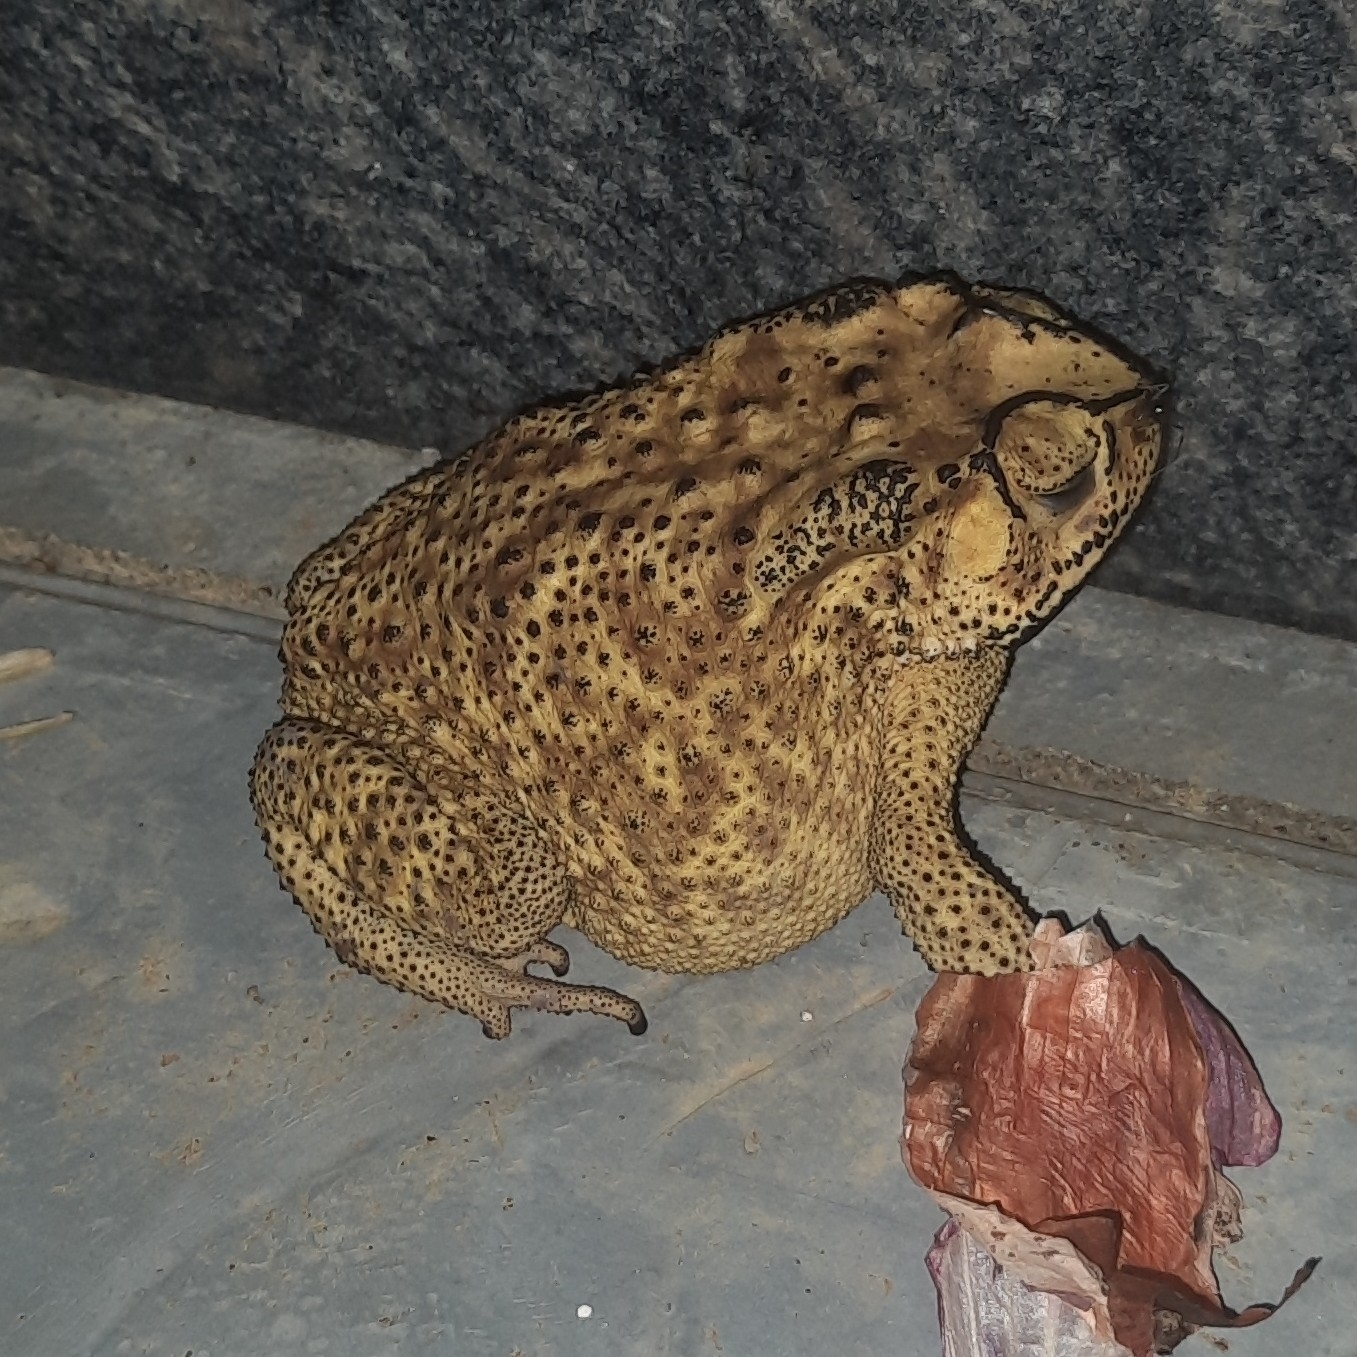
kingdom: Animalia
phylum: Chordata
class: Amphibia
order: Anura
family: Bufonidae
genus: Duttaphrynus
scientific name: Duttaphrynus melanostictus
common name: Common sunda toad
